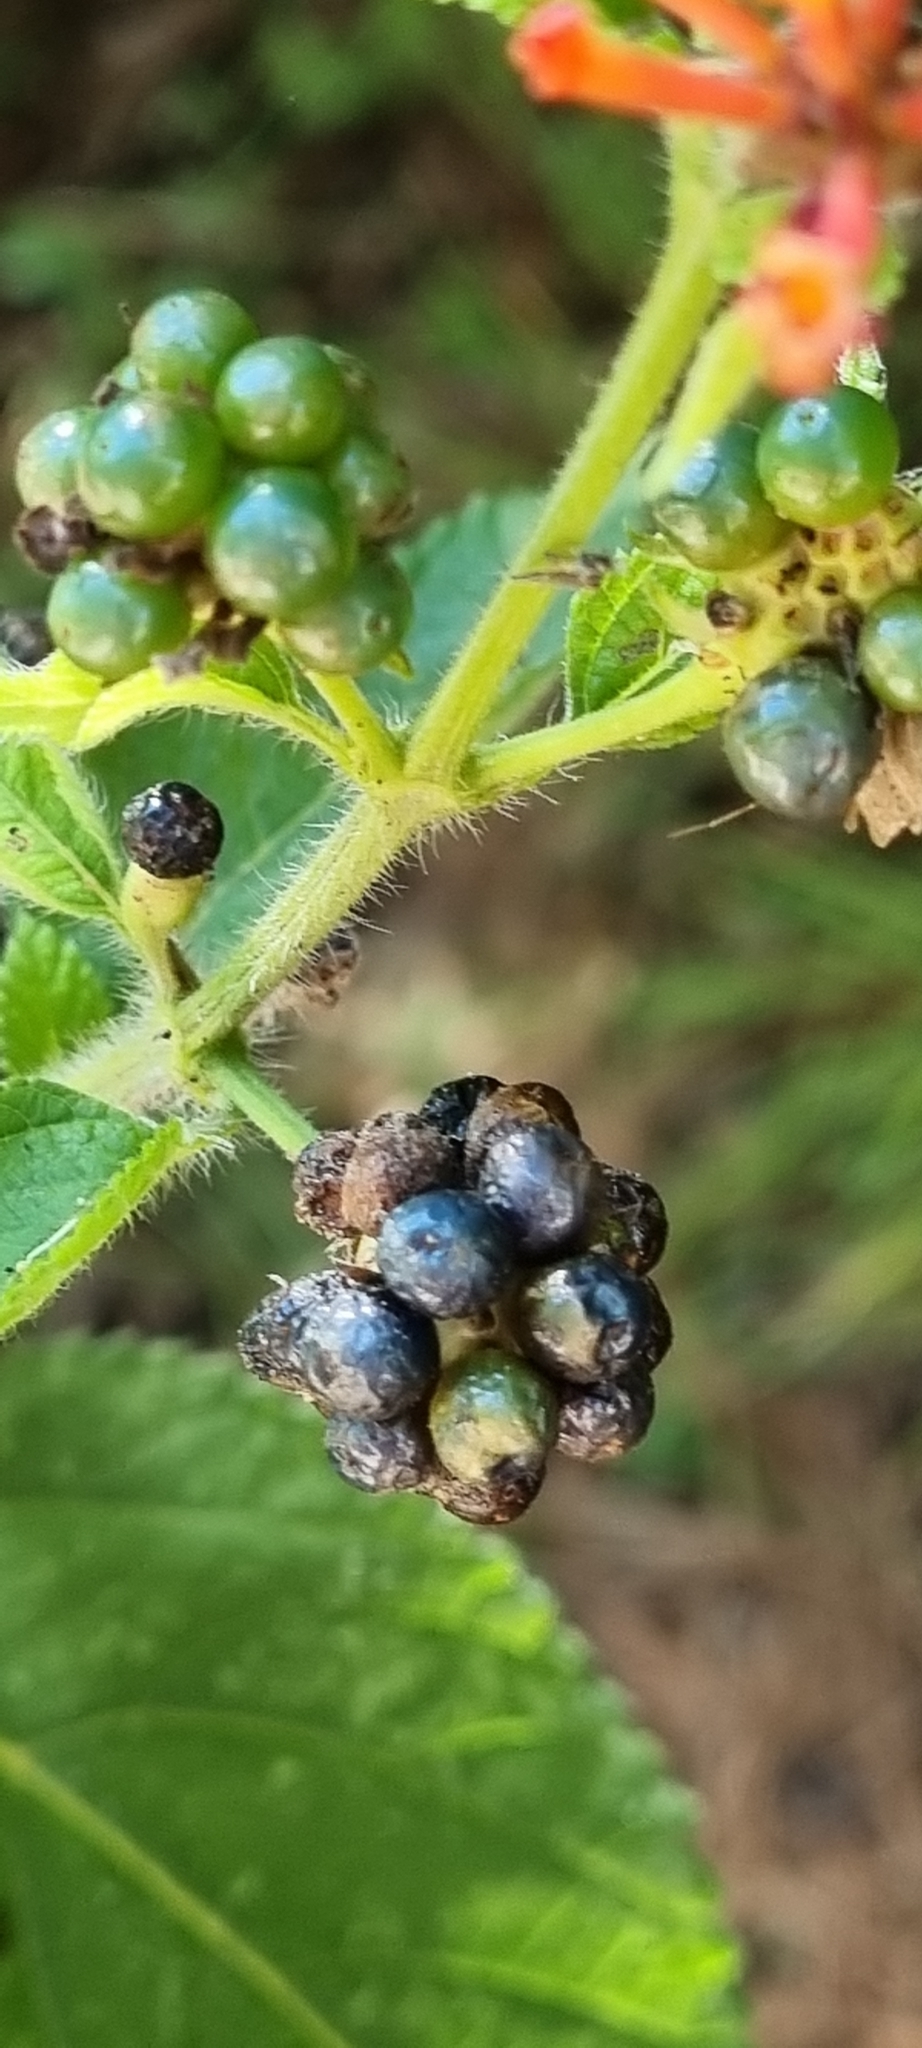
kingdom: Plantae
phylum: Tracheophyta
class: Magnoliopsida
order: Lamiales
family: Verbenaceae
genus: Lantana
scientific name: Lantana camara
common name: Lantana
